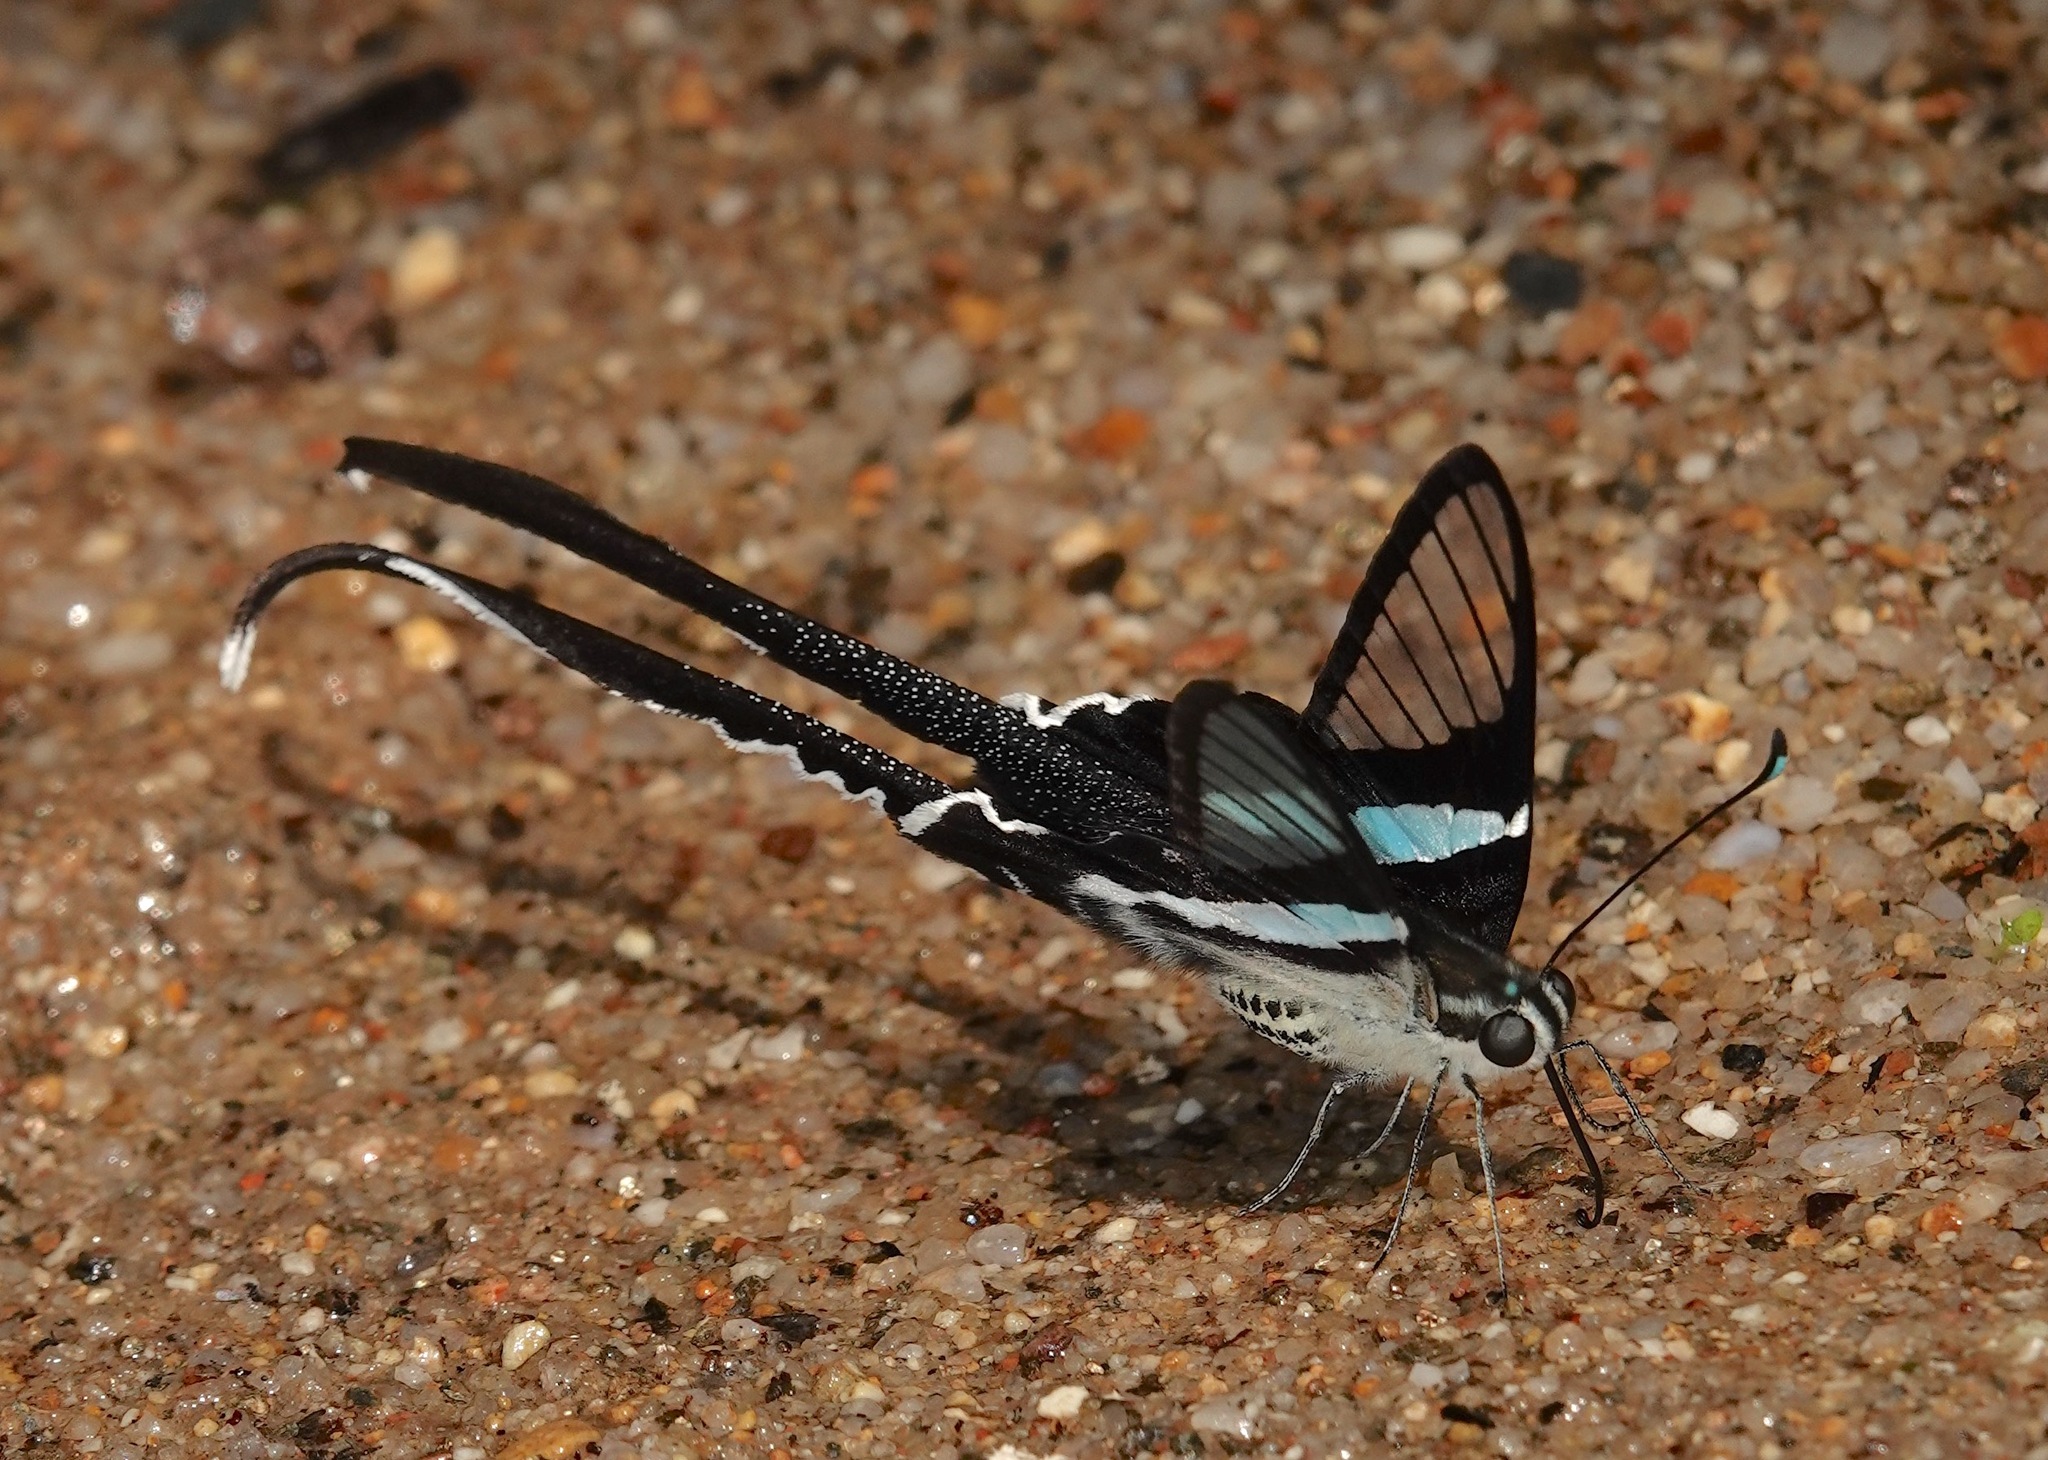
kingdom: Animalia
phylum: Arthropoda
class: Insecta
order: Lepidoptera
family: Papilionidae
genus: Lamproptera
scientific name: Lamproptera meges
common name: Green dragontail
